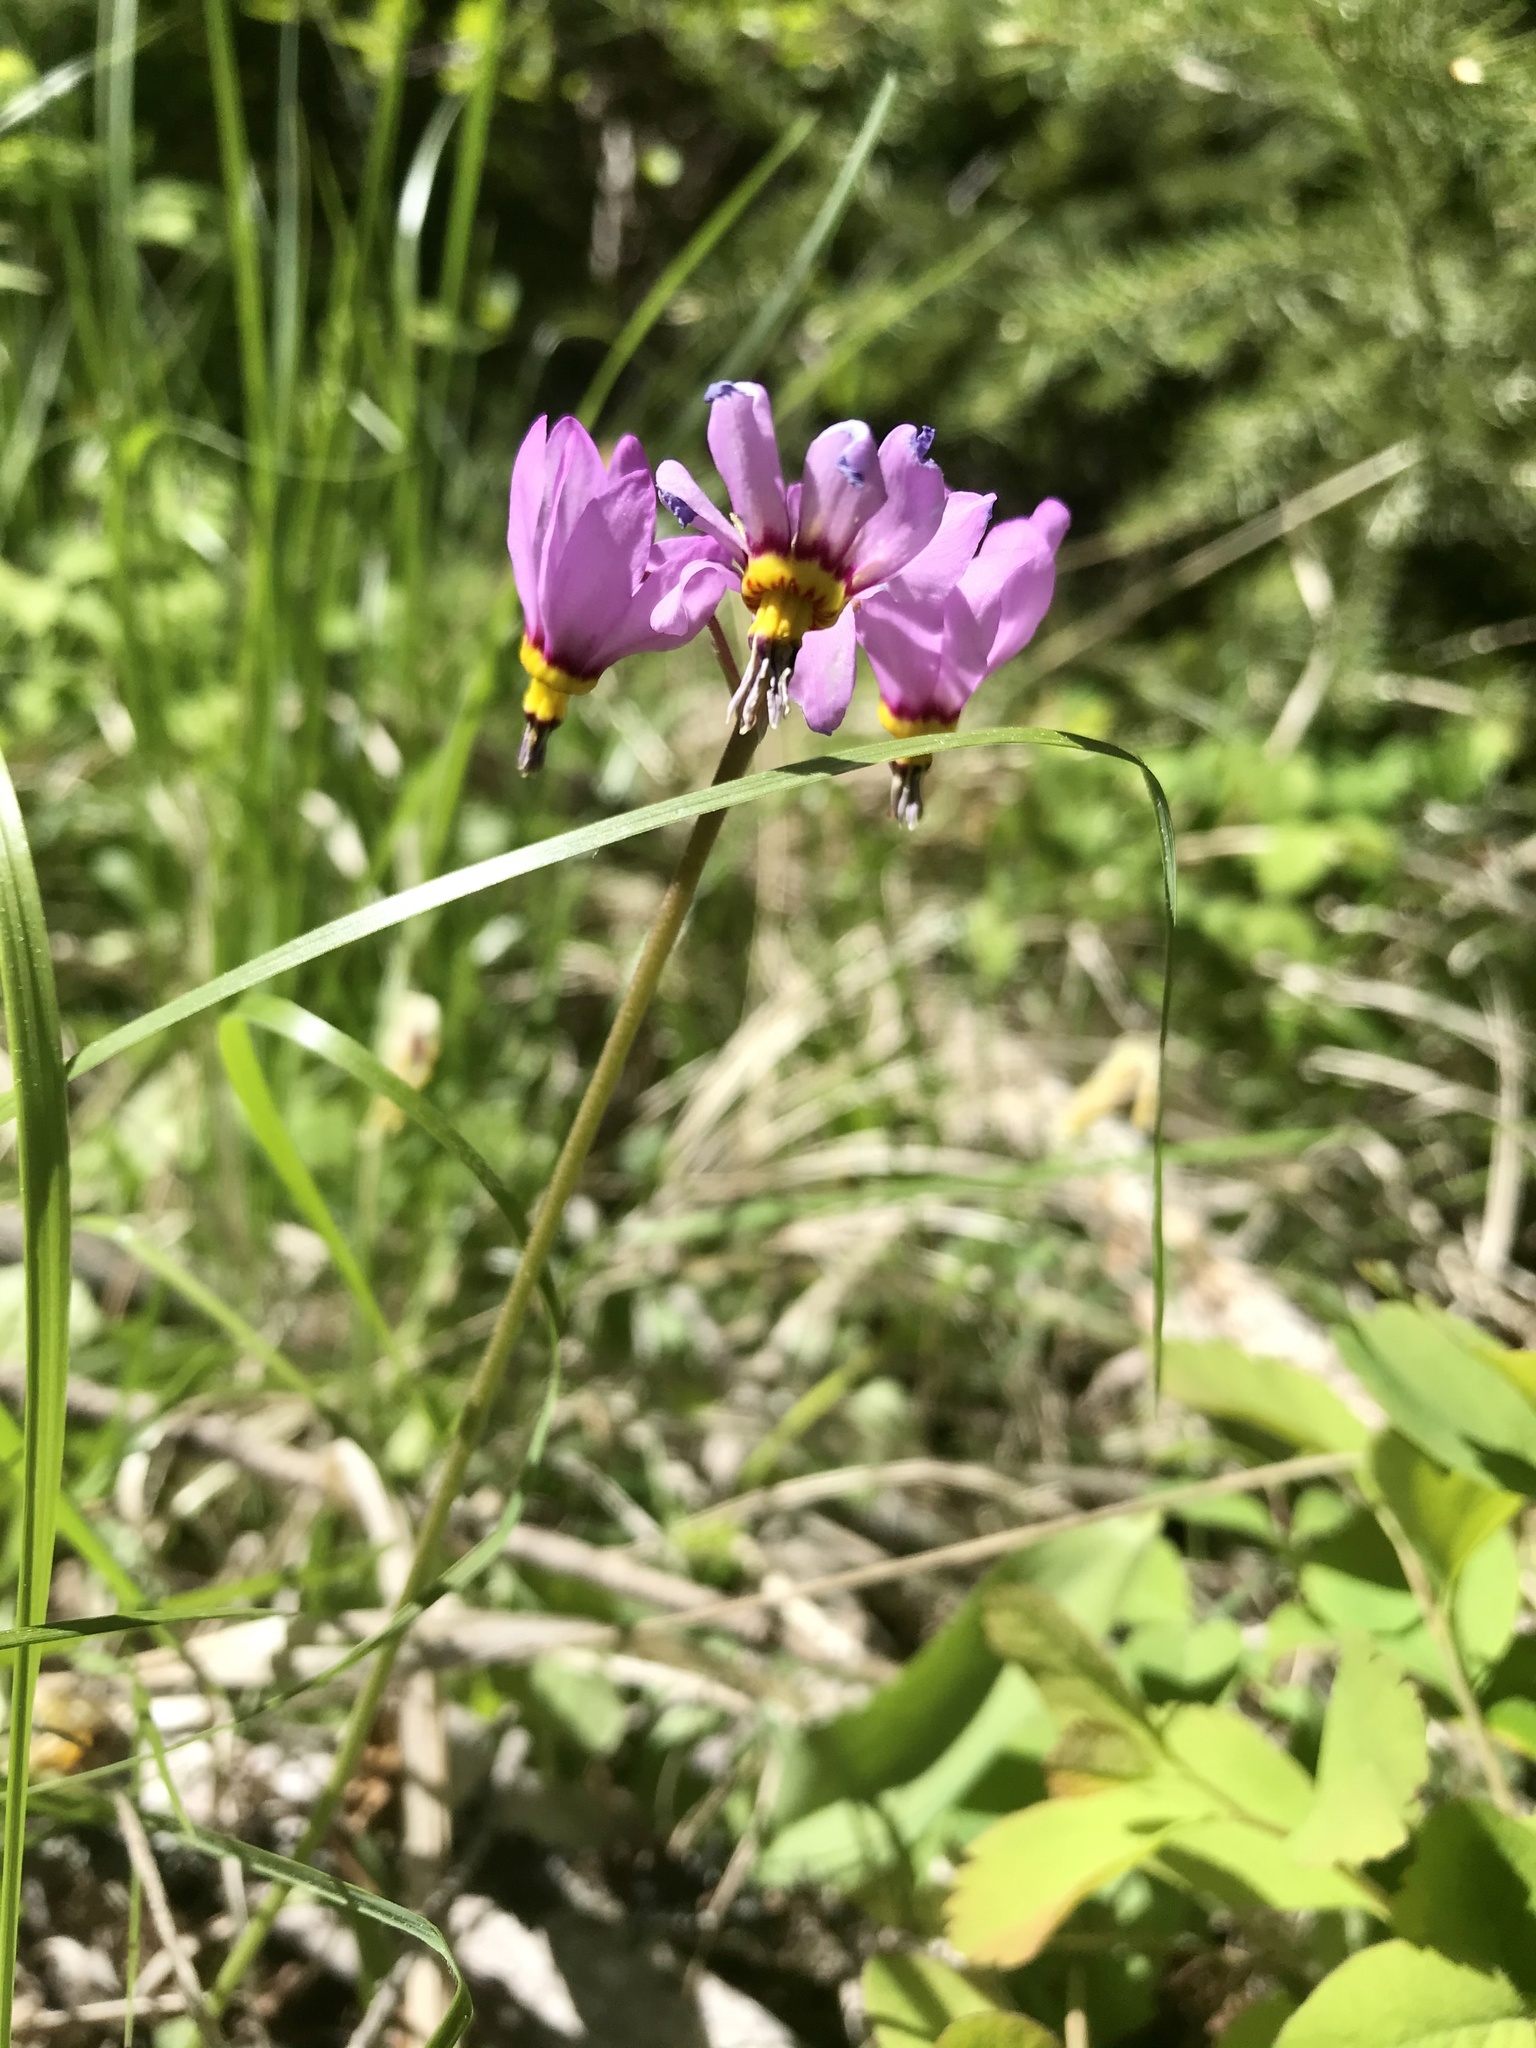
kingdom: Plantae
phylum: Tracheophyta
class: Magnoliopsida
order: Ericales
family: Primulaceae
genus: Dodecatheon
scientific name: Dodecatheon pulchellum
